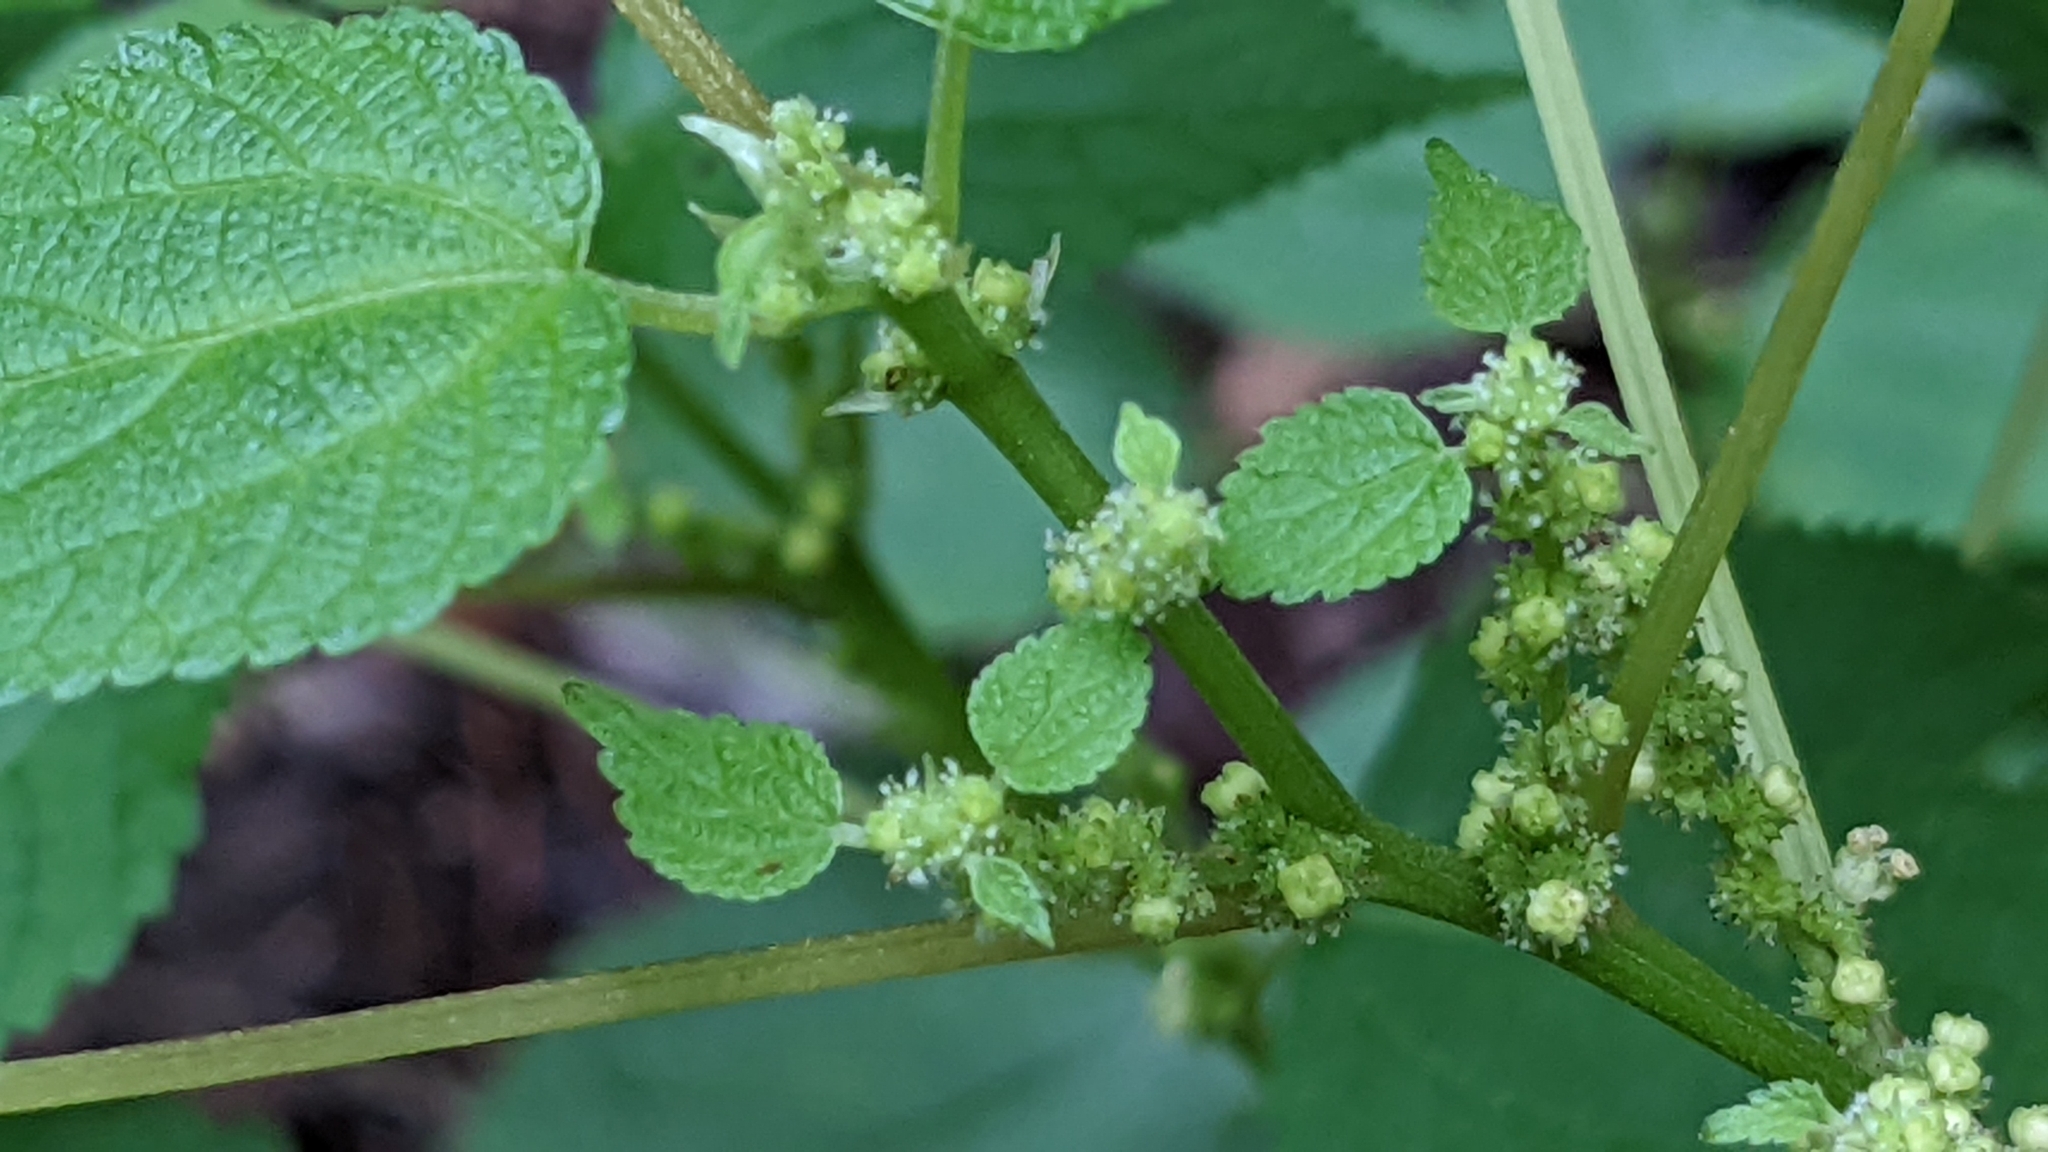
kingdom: Plantae
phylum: Tracheophyta
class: Magnoliopsida
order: Rosales
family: Urticaceae
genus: Boehmeria
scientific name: Boehmeria cylindrica
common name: Bog-hemp
